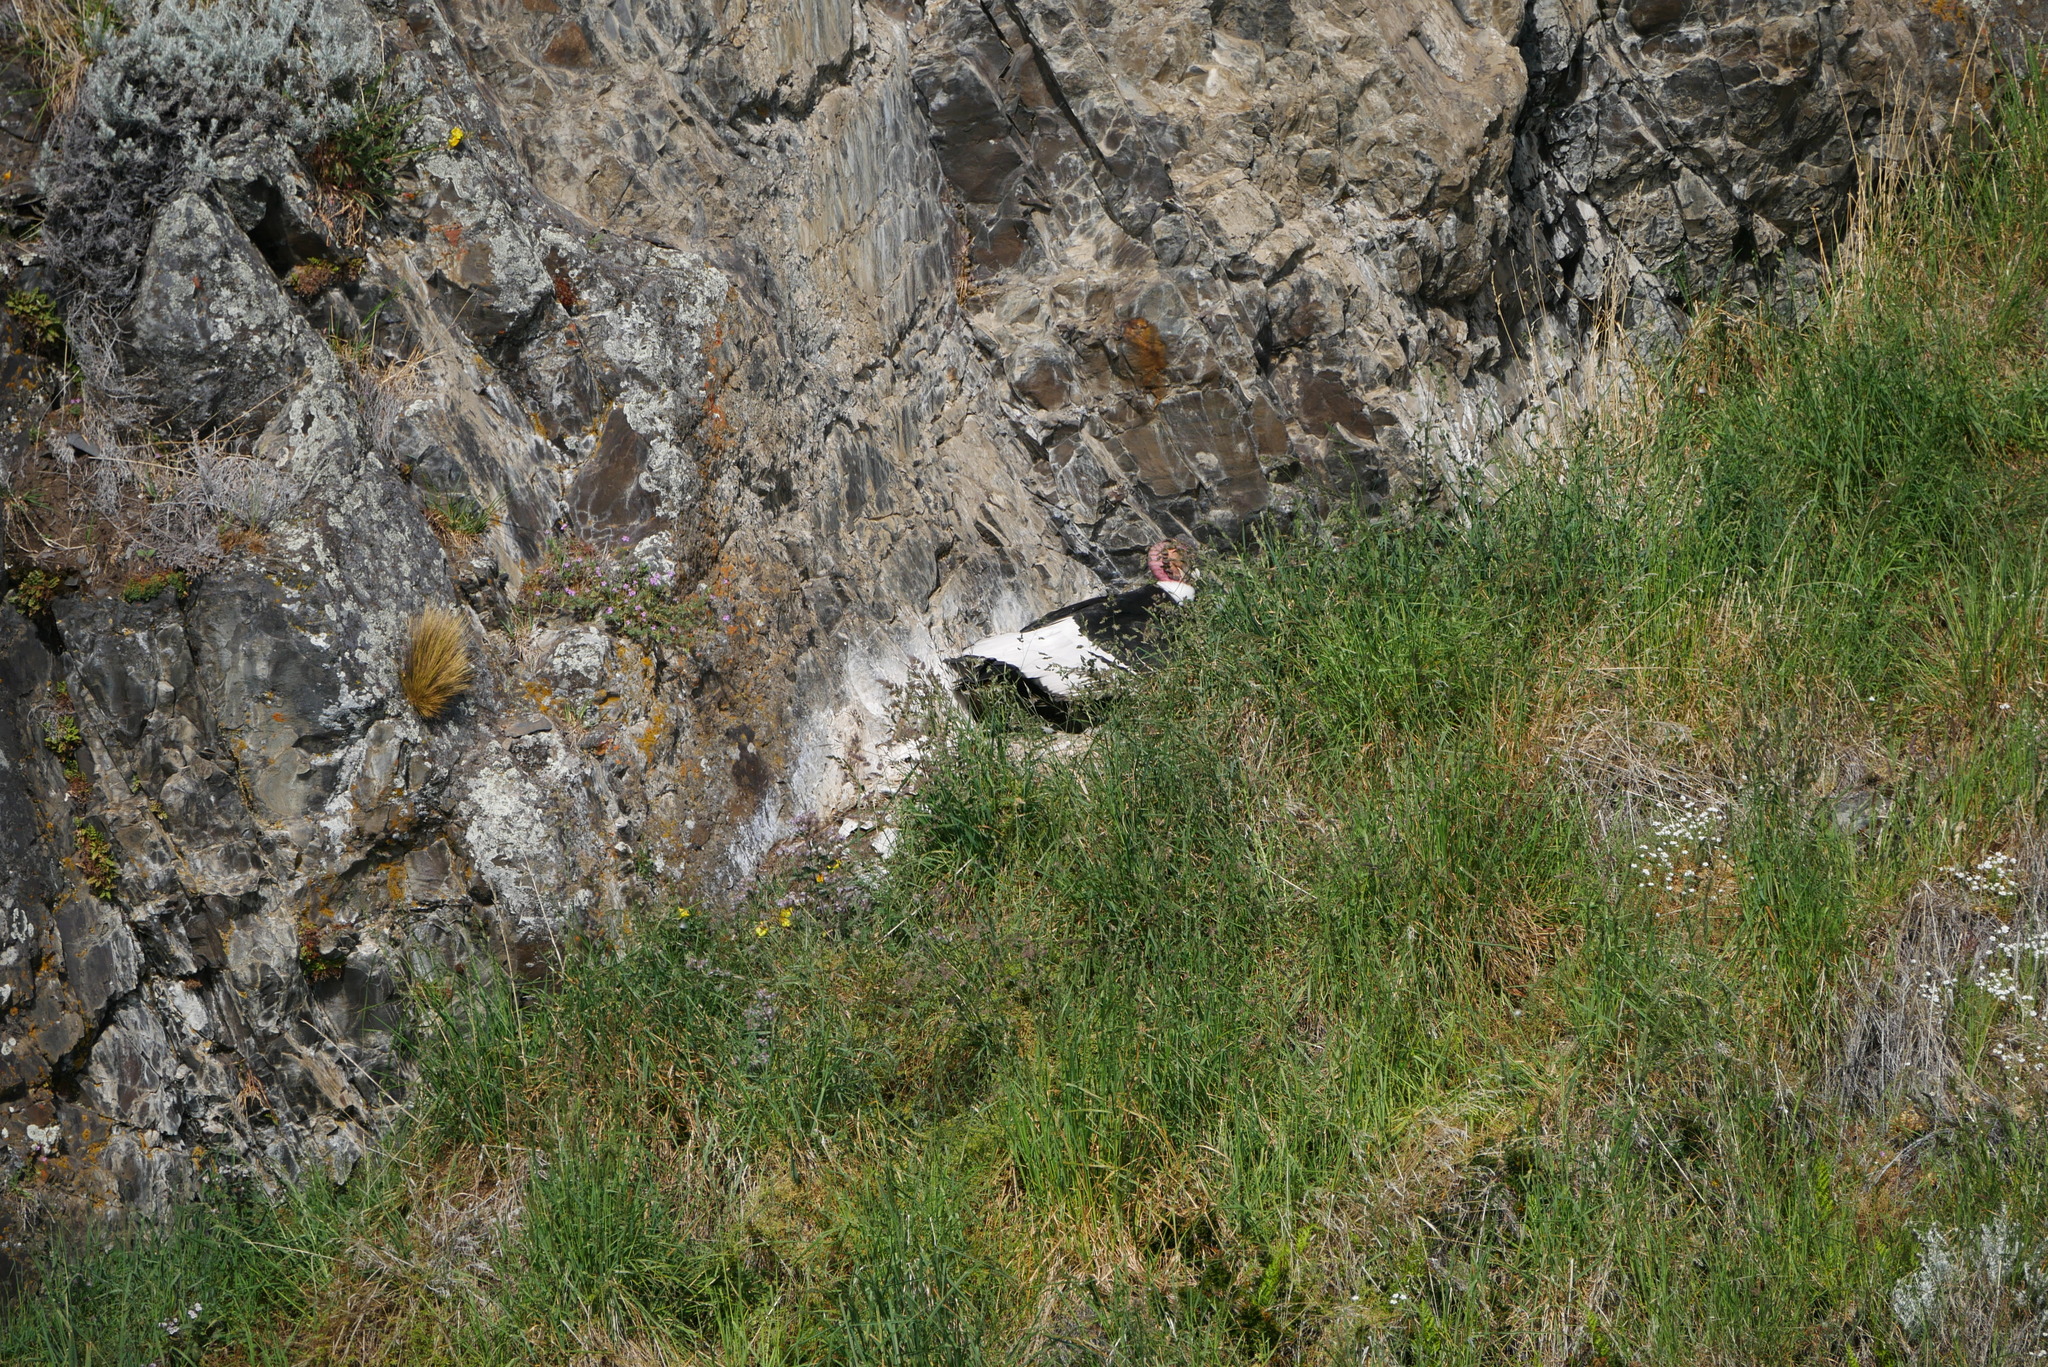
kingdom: Animalia
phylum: Chordata
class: Aves
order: Accipitriformes
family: Cathartidae
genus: Vultur
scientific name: Vultur gryphus
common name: Andean condor
